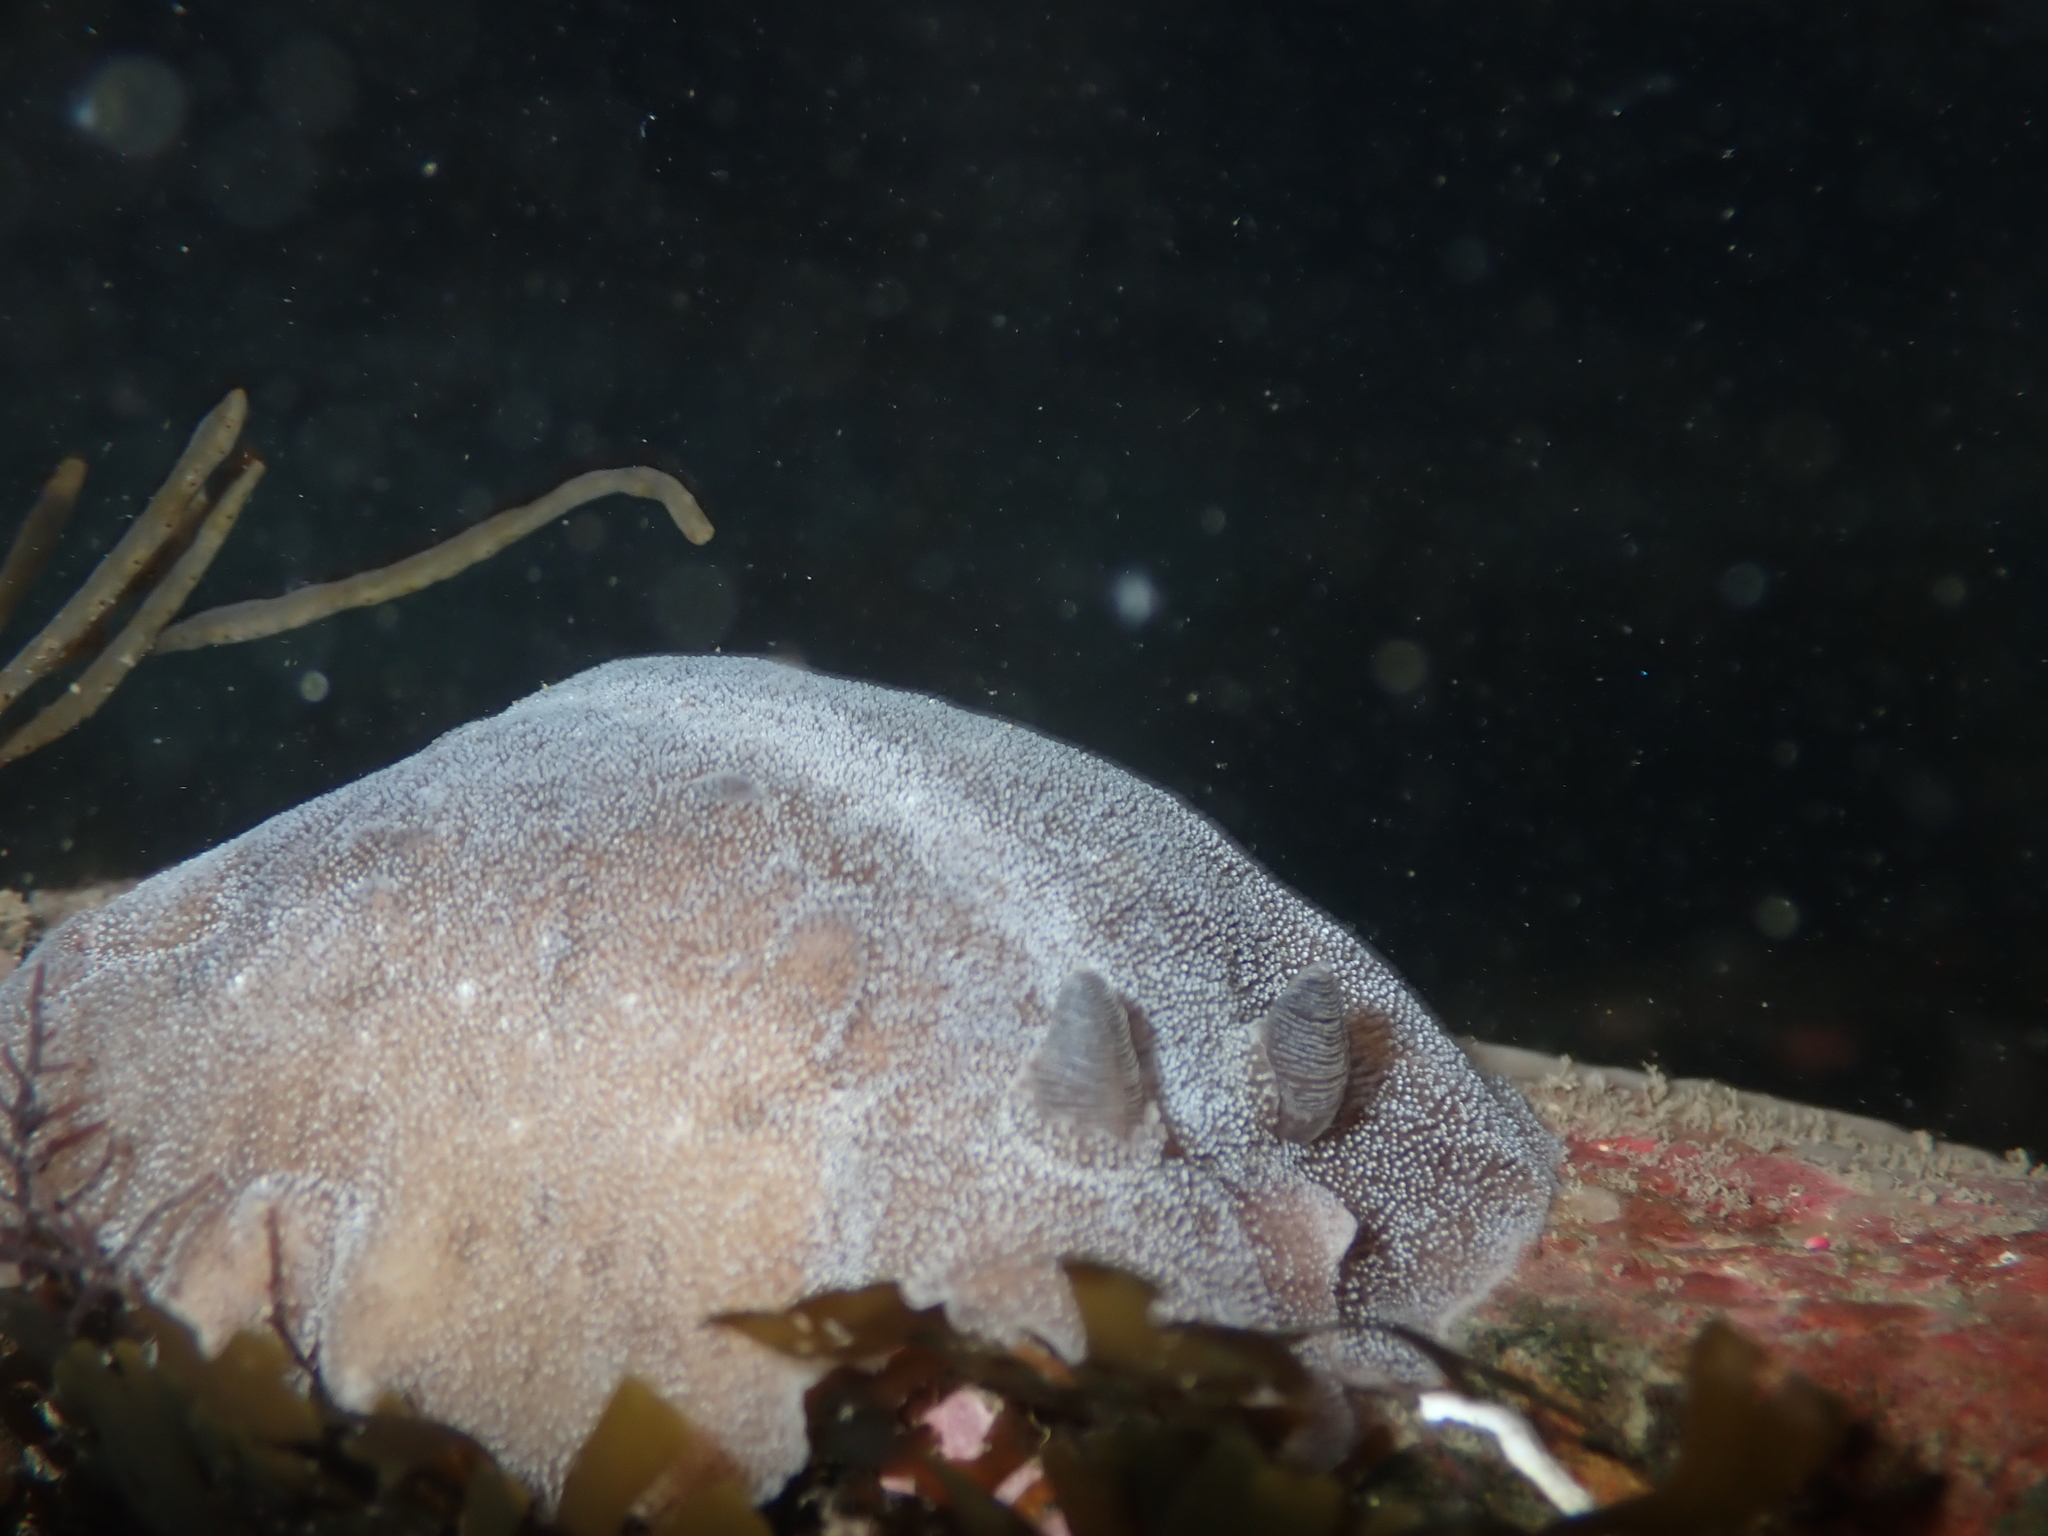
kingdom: Animalia
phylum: Mollusca
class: Gastropoda
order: Nudibranchia
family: Discodorididae
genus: Alloiodoris
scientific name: Alloiodoris lanuginata
